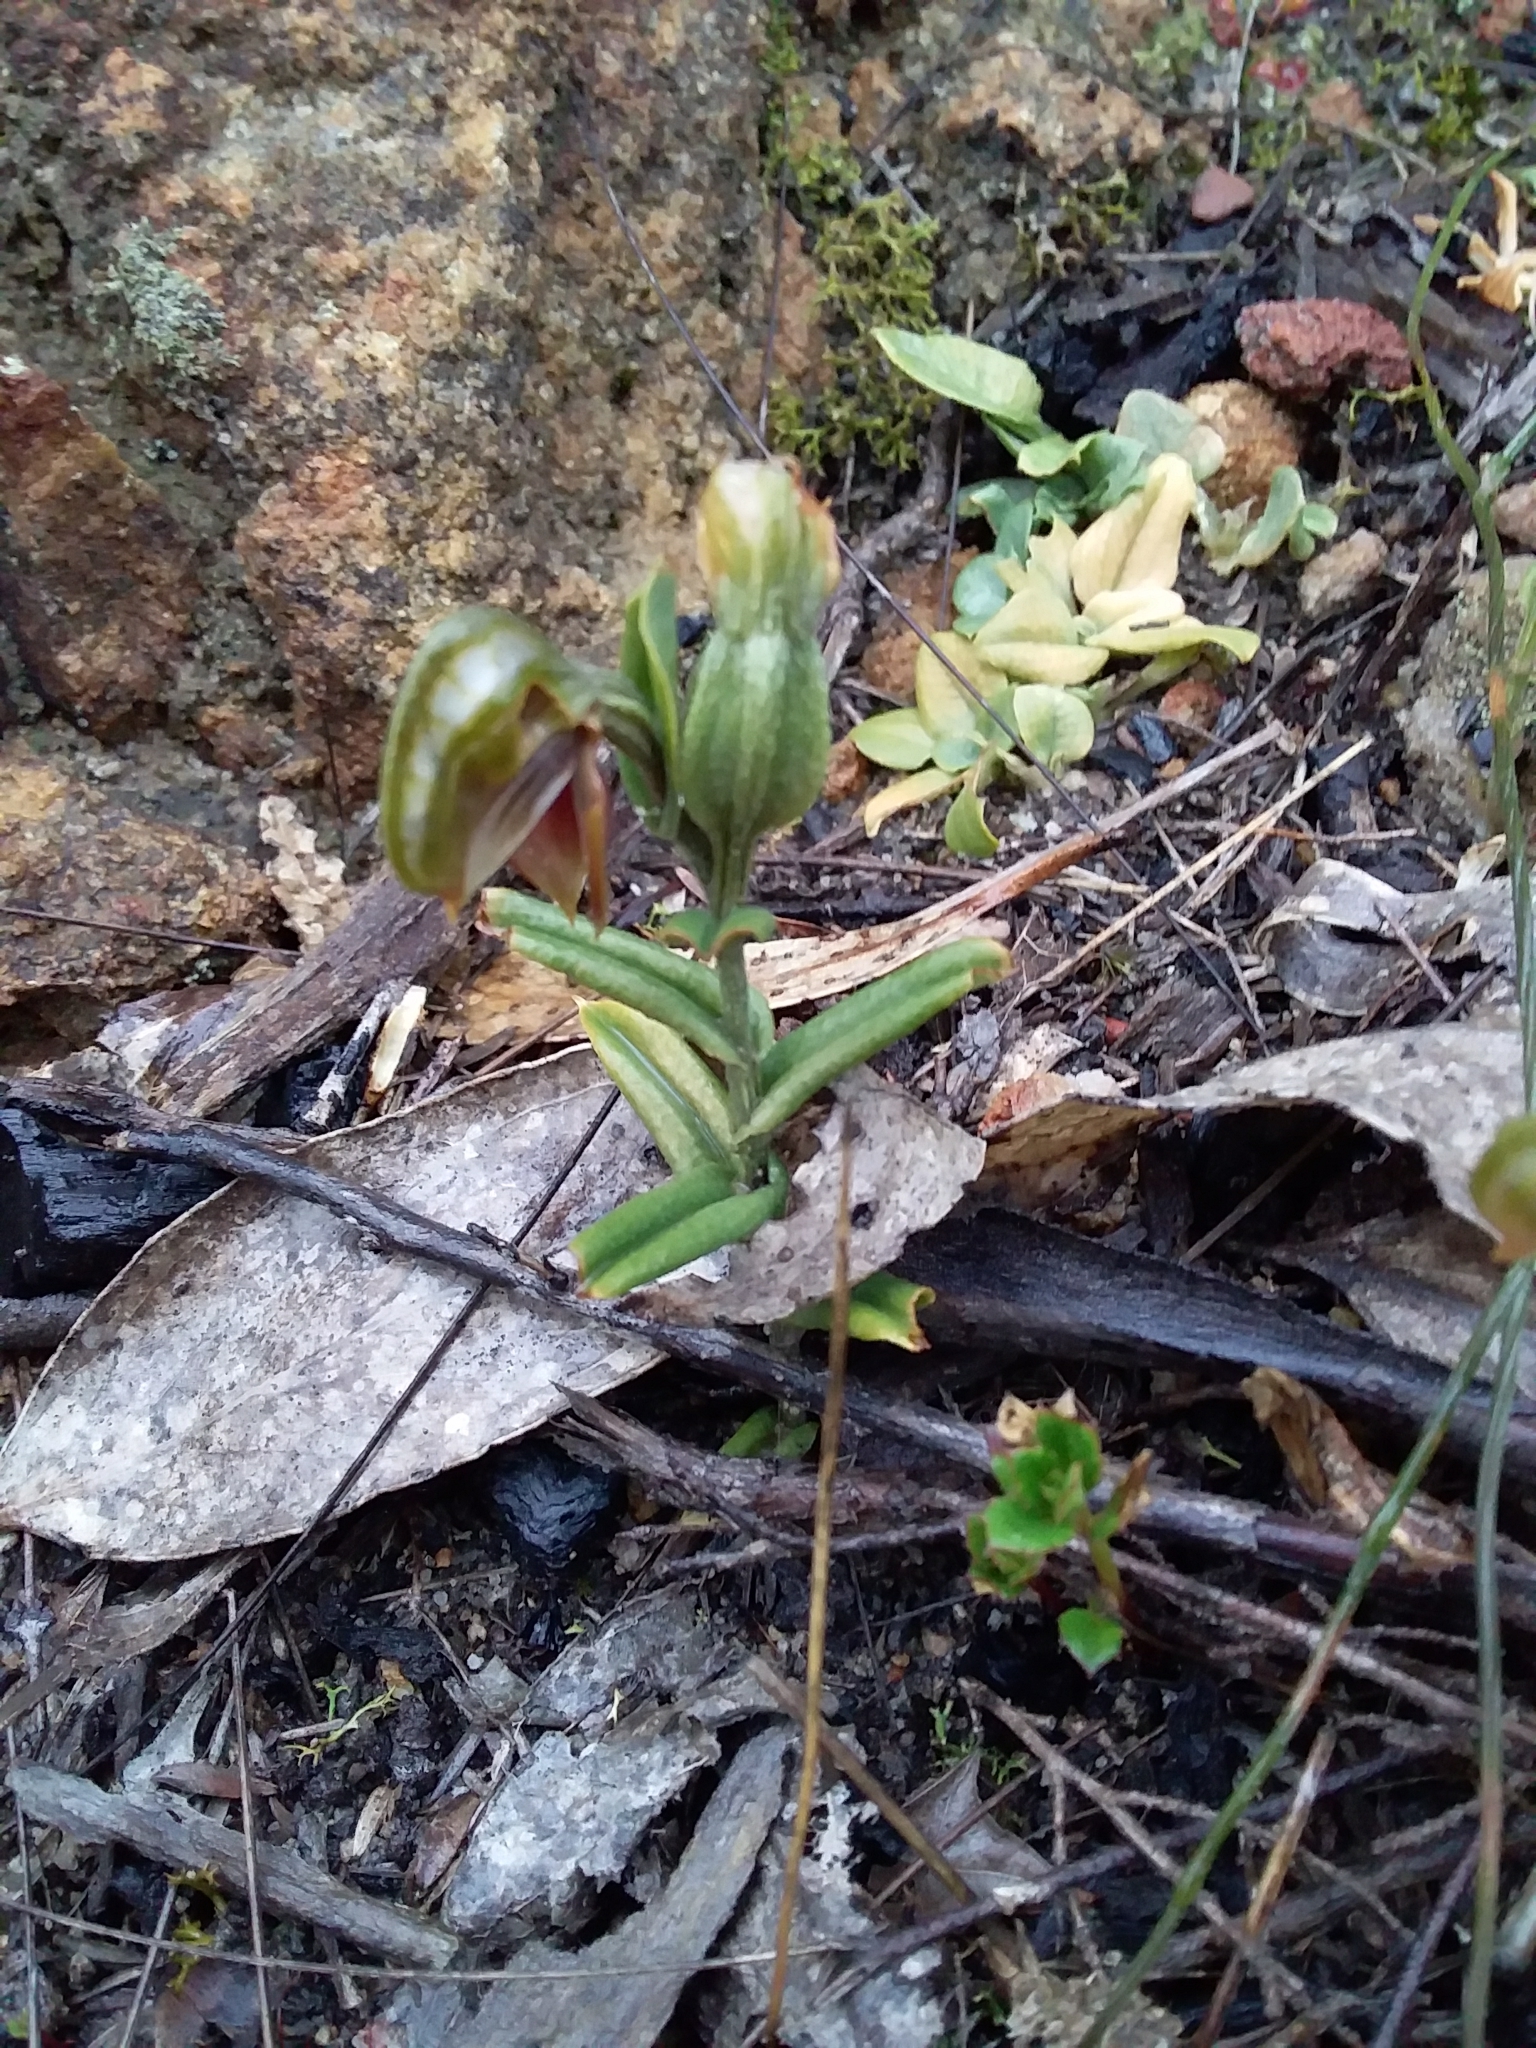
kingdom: Plantae
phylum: Tracheophyta
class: Liliopsida
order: Asparagales
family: Orchidaceae
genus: Pterostylis
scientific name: Pterostylis sanguinea
